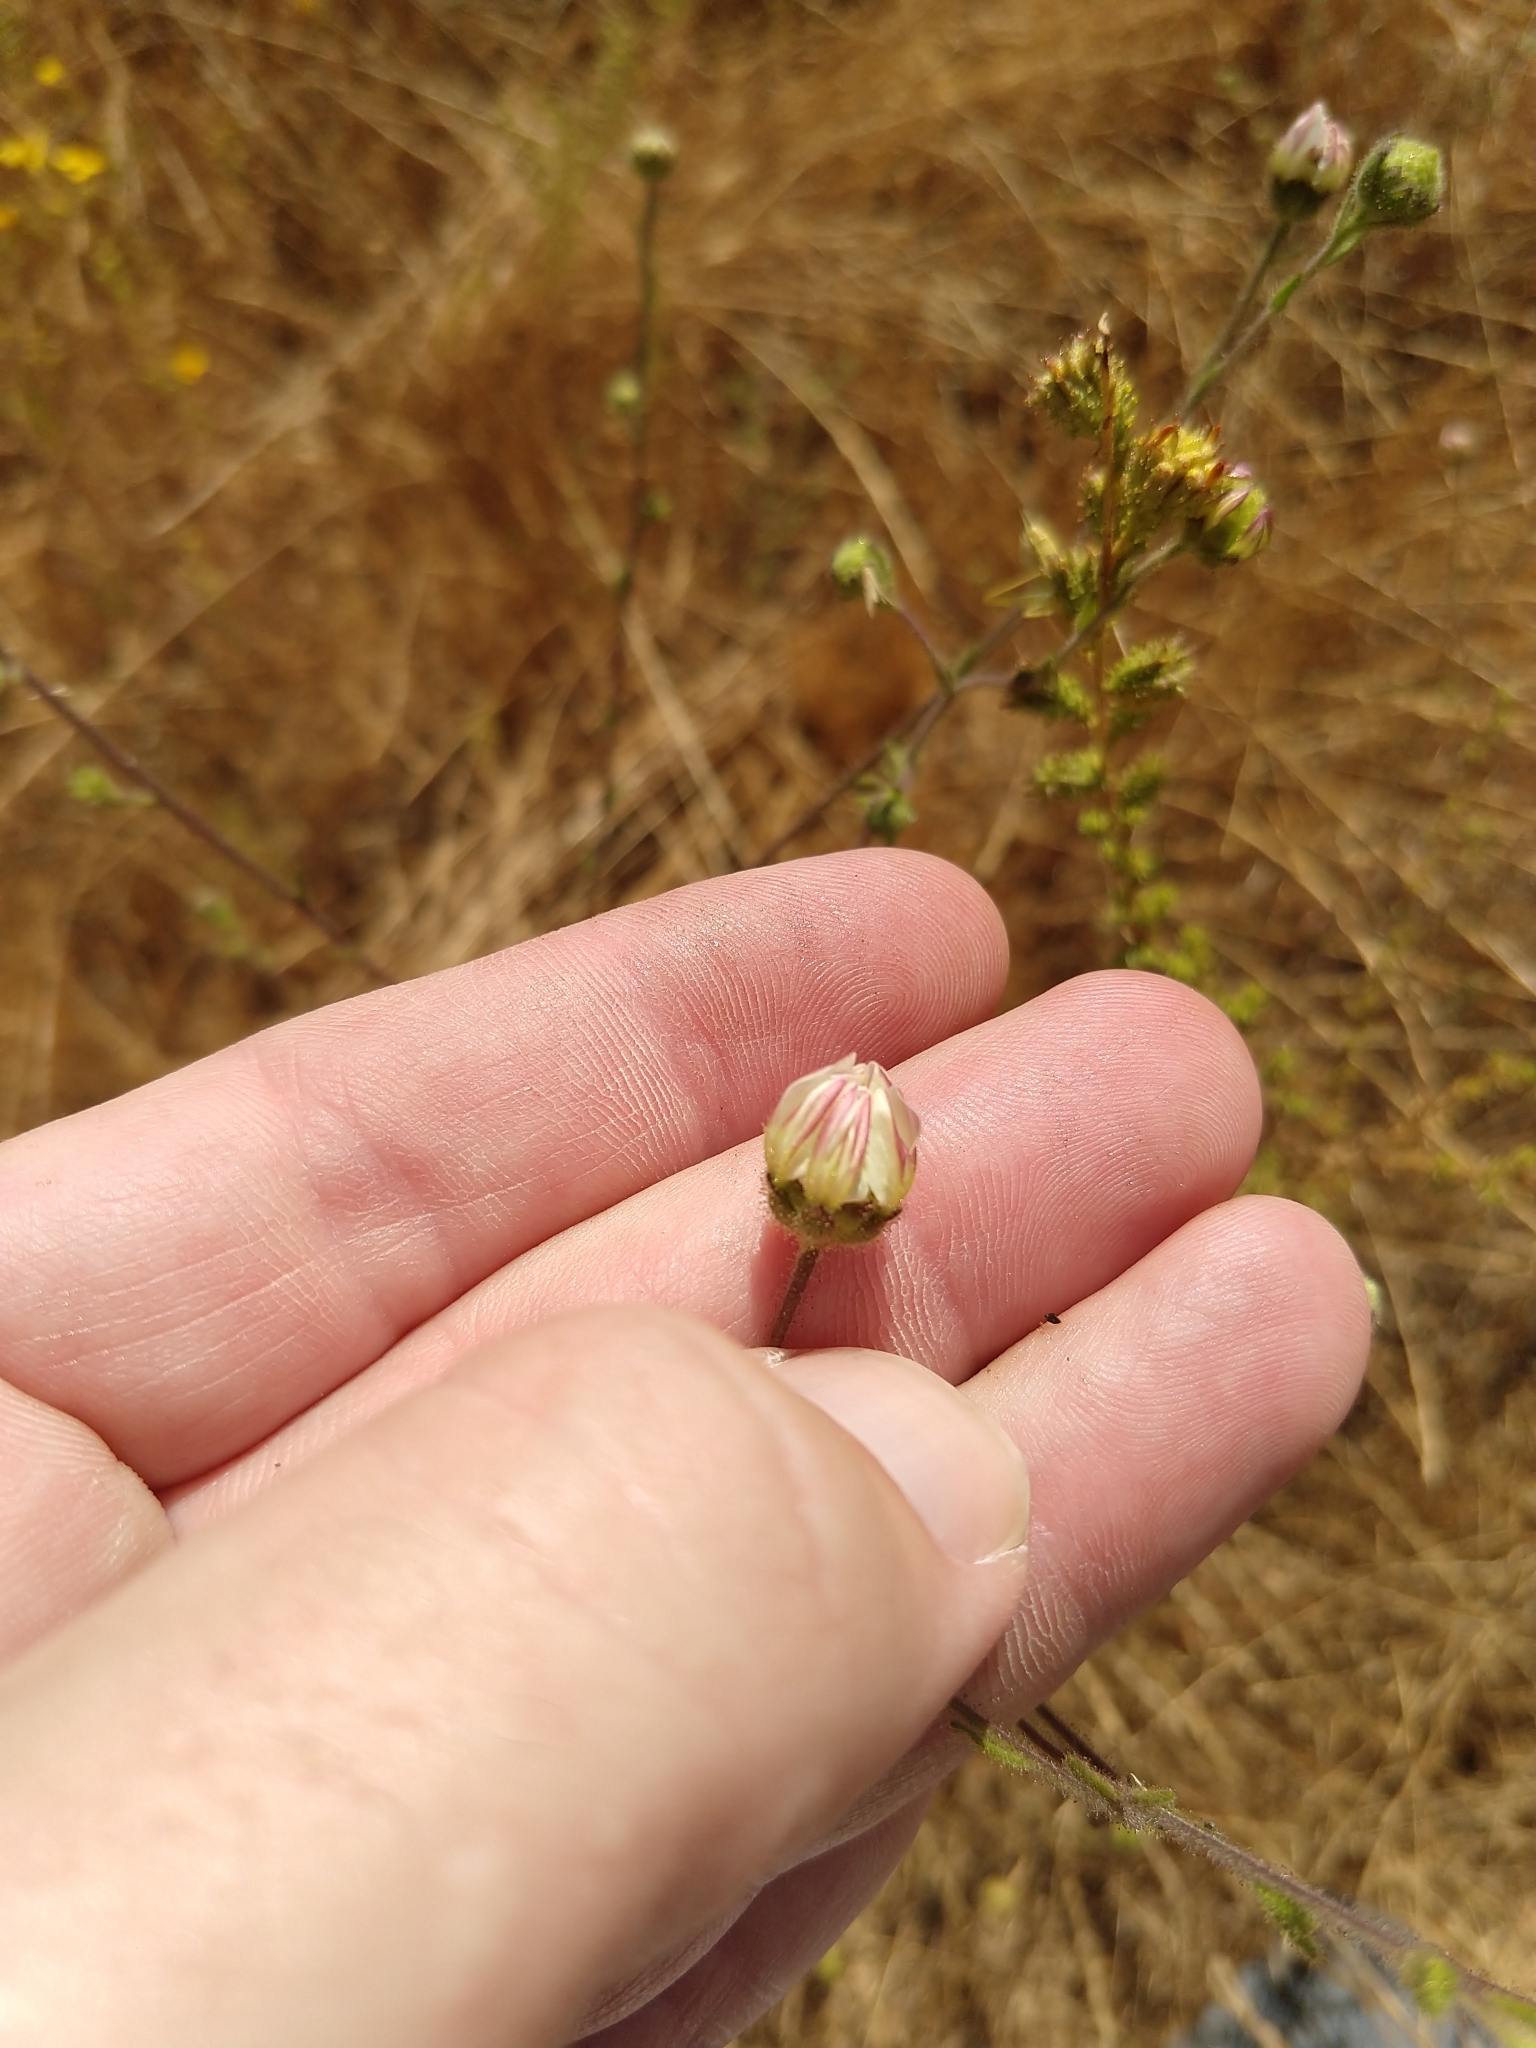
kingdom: Plantae
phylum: Tracheophyta
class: Magnoliopsida
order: Asterales
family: Asteraceae
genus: Hemizonia
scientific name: Hemizonia congesta
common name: Hayfield tarweed
